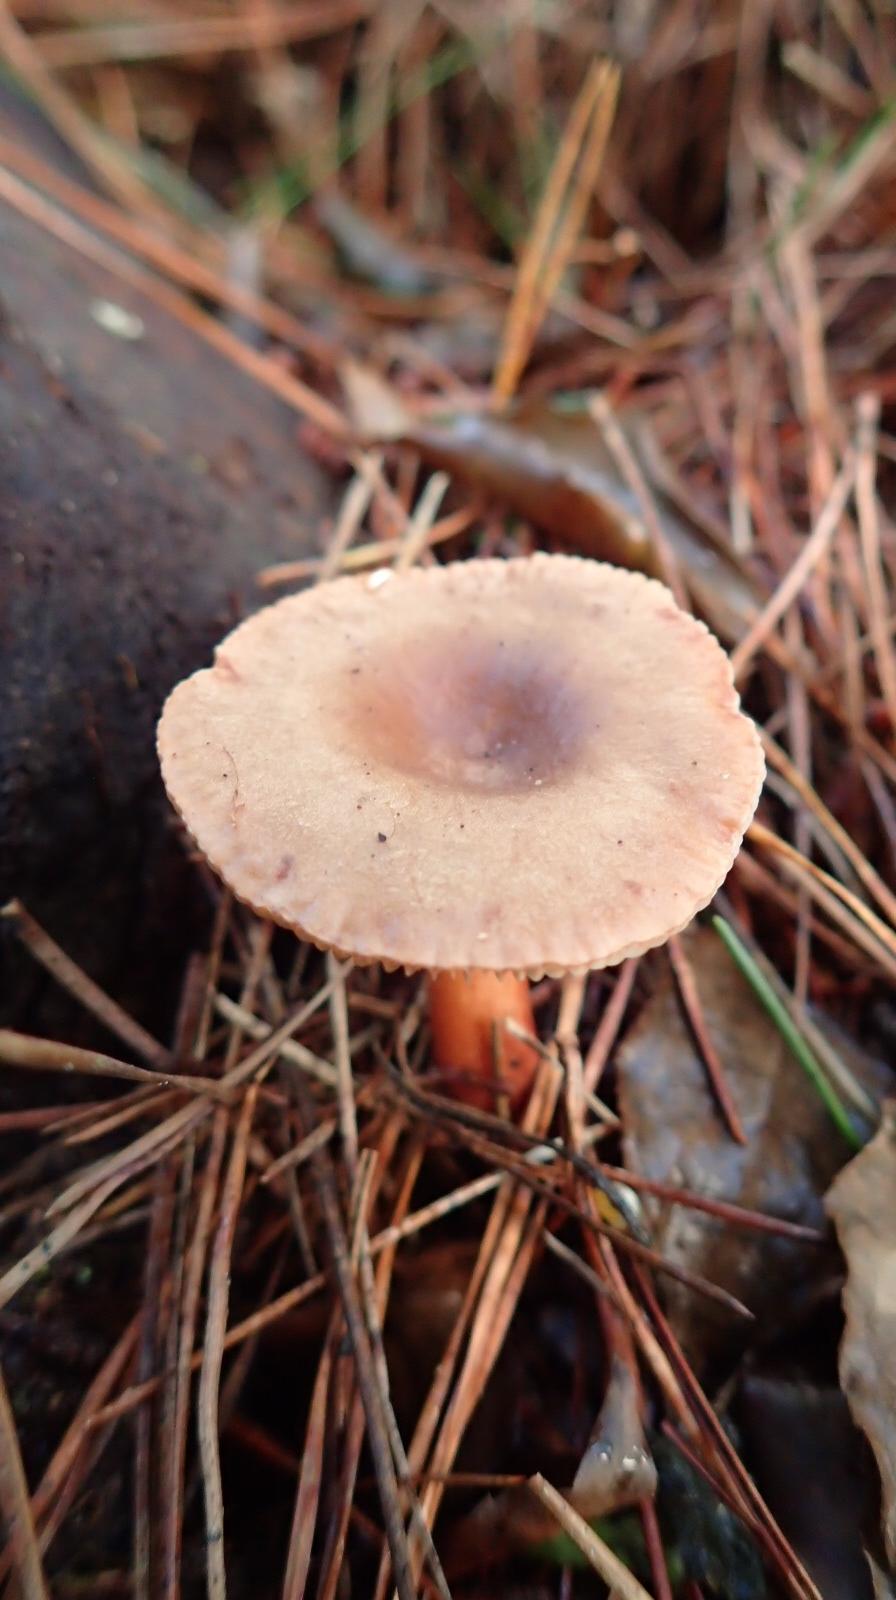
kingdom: Fungi
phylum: Basidiomycota
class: Agaricomycetes
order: Russulales
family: Russulaceae
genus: Lactarius
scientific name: Lactarius hepaticus
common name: Liver milkcap
